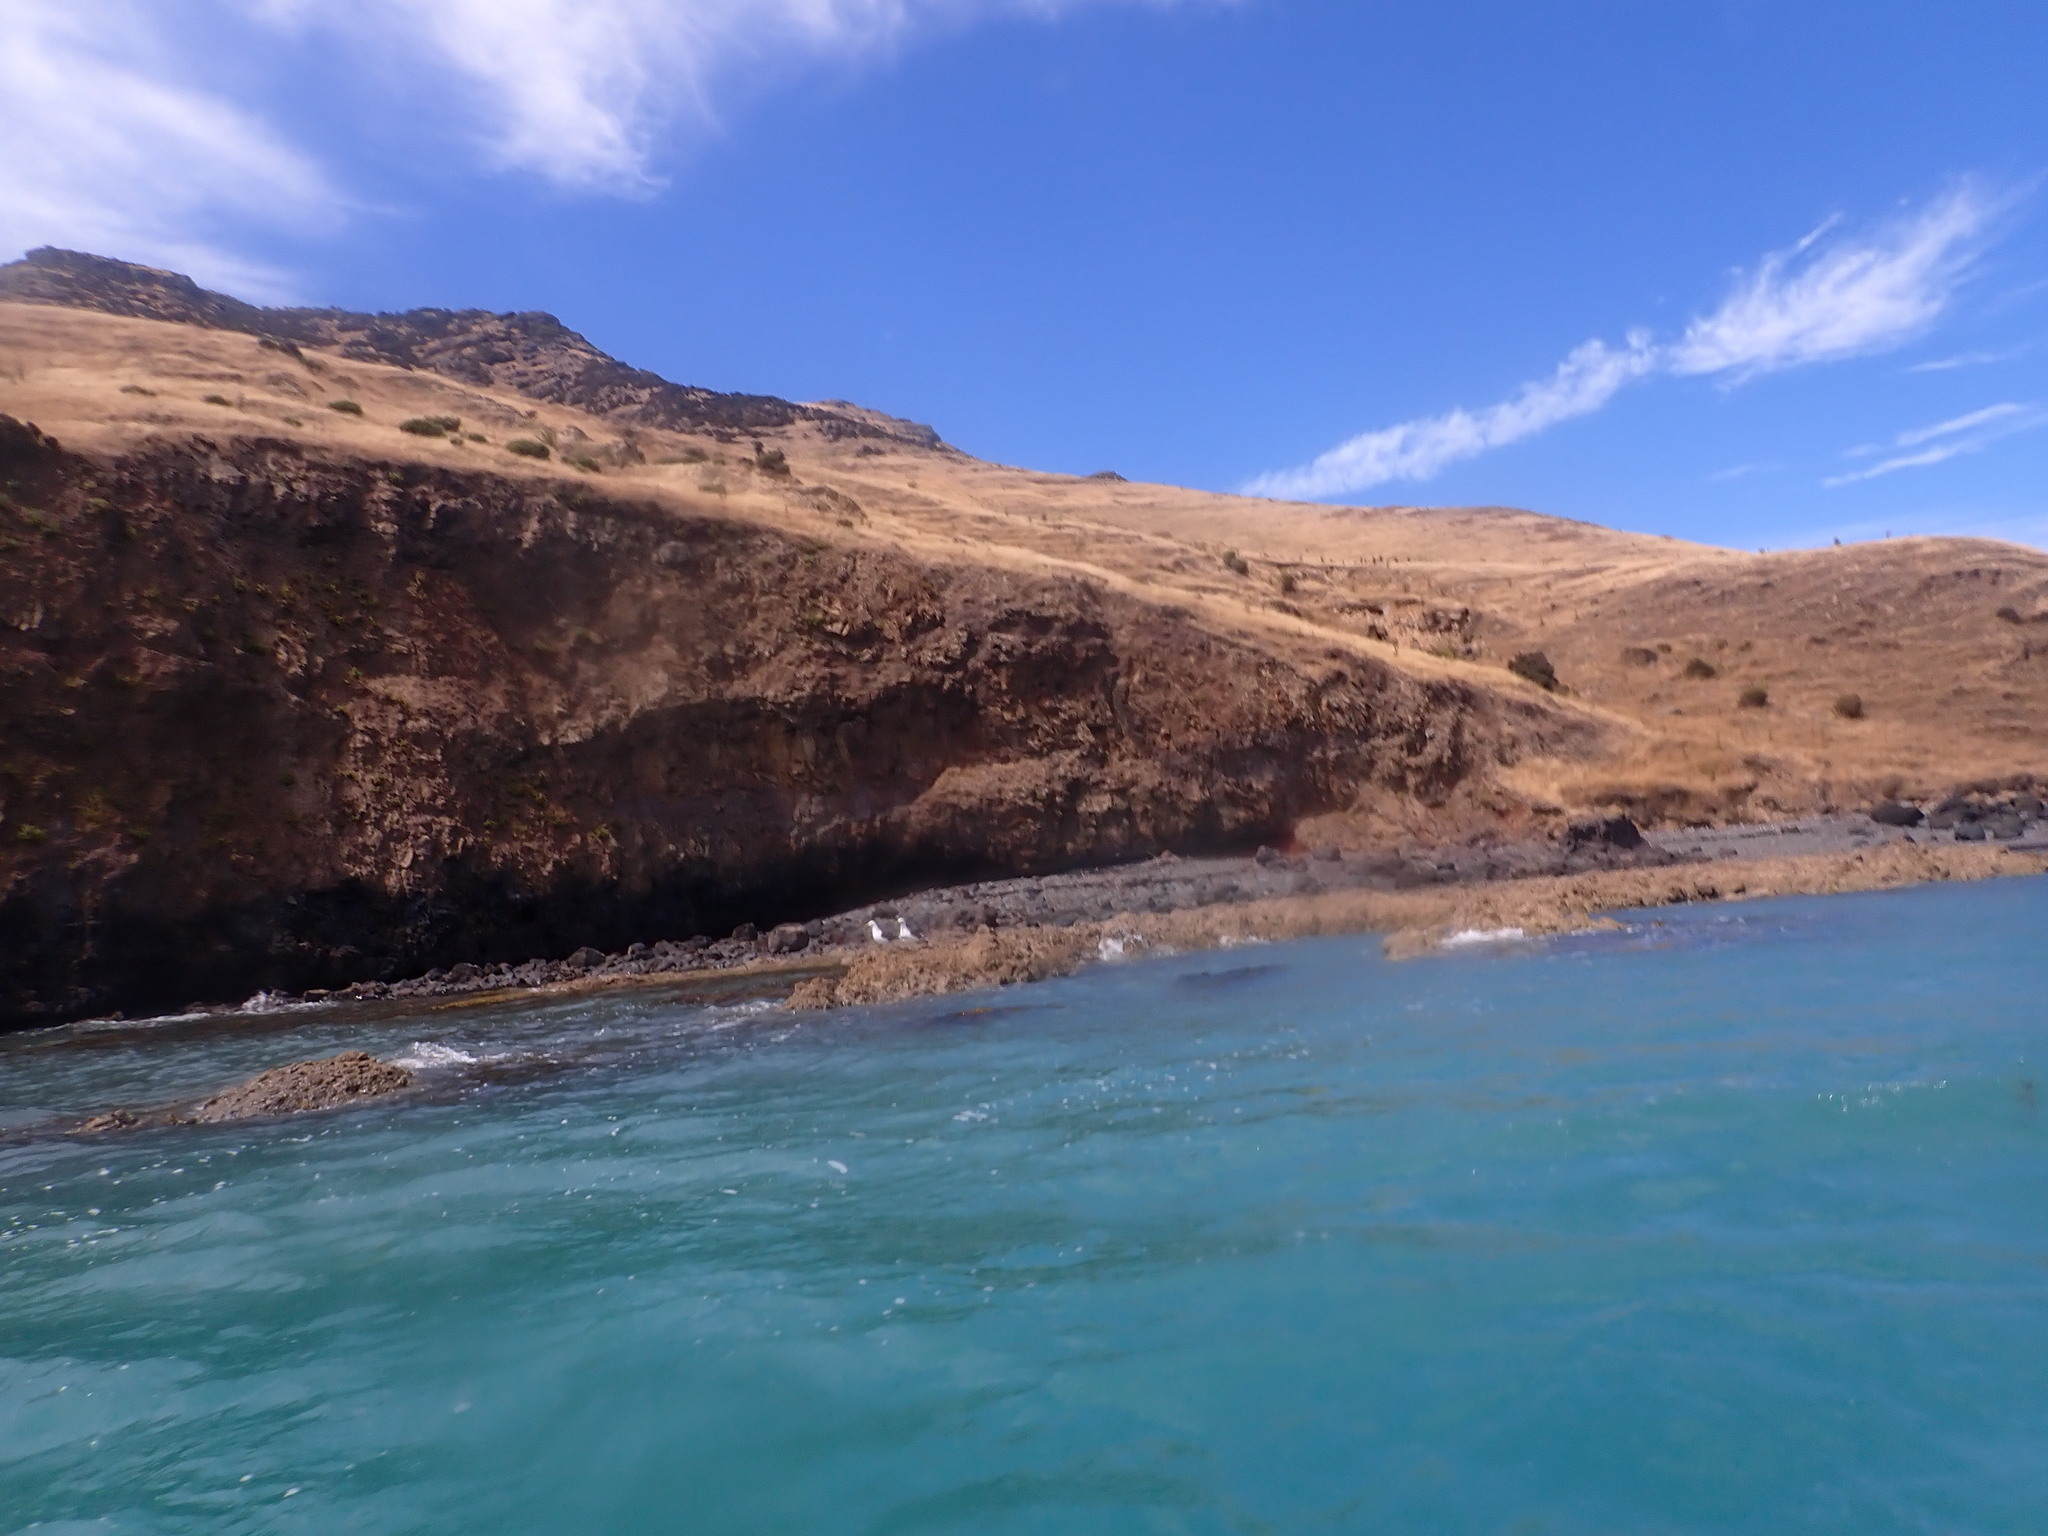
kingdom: Animalia
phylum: Chordata
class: Aves
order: Charadriiformes
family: Laridae
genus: Larus
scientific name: Larus dominicanus
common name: Kelp gull
